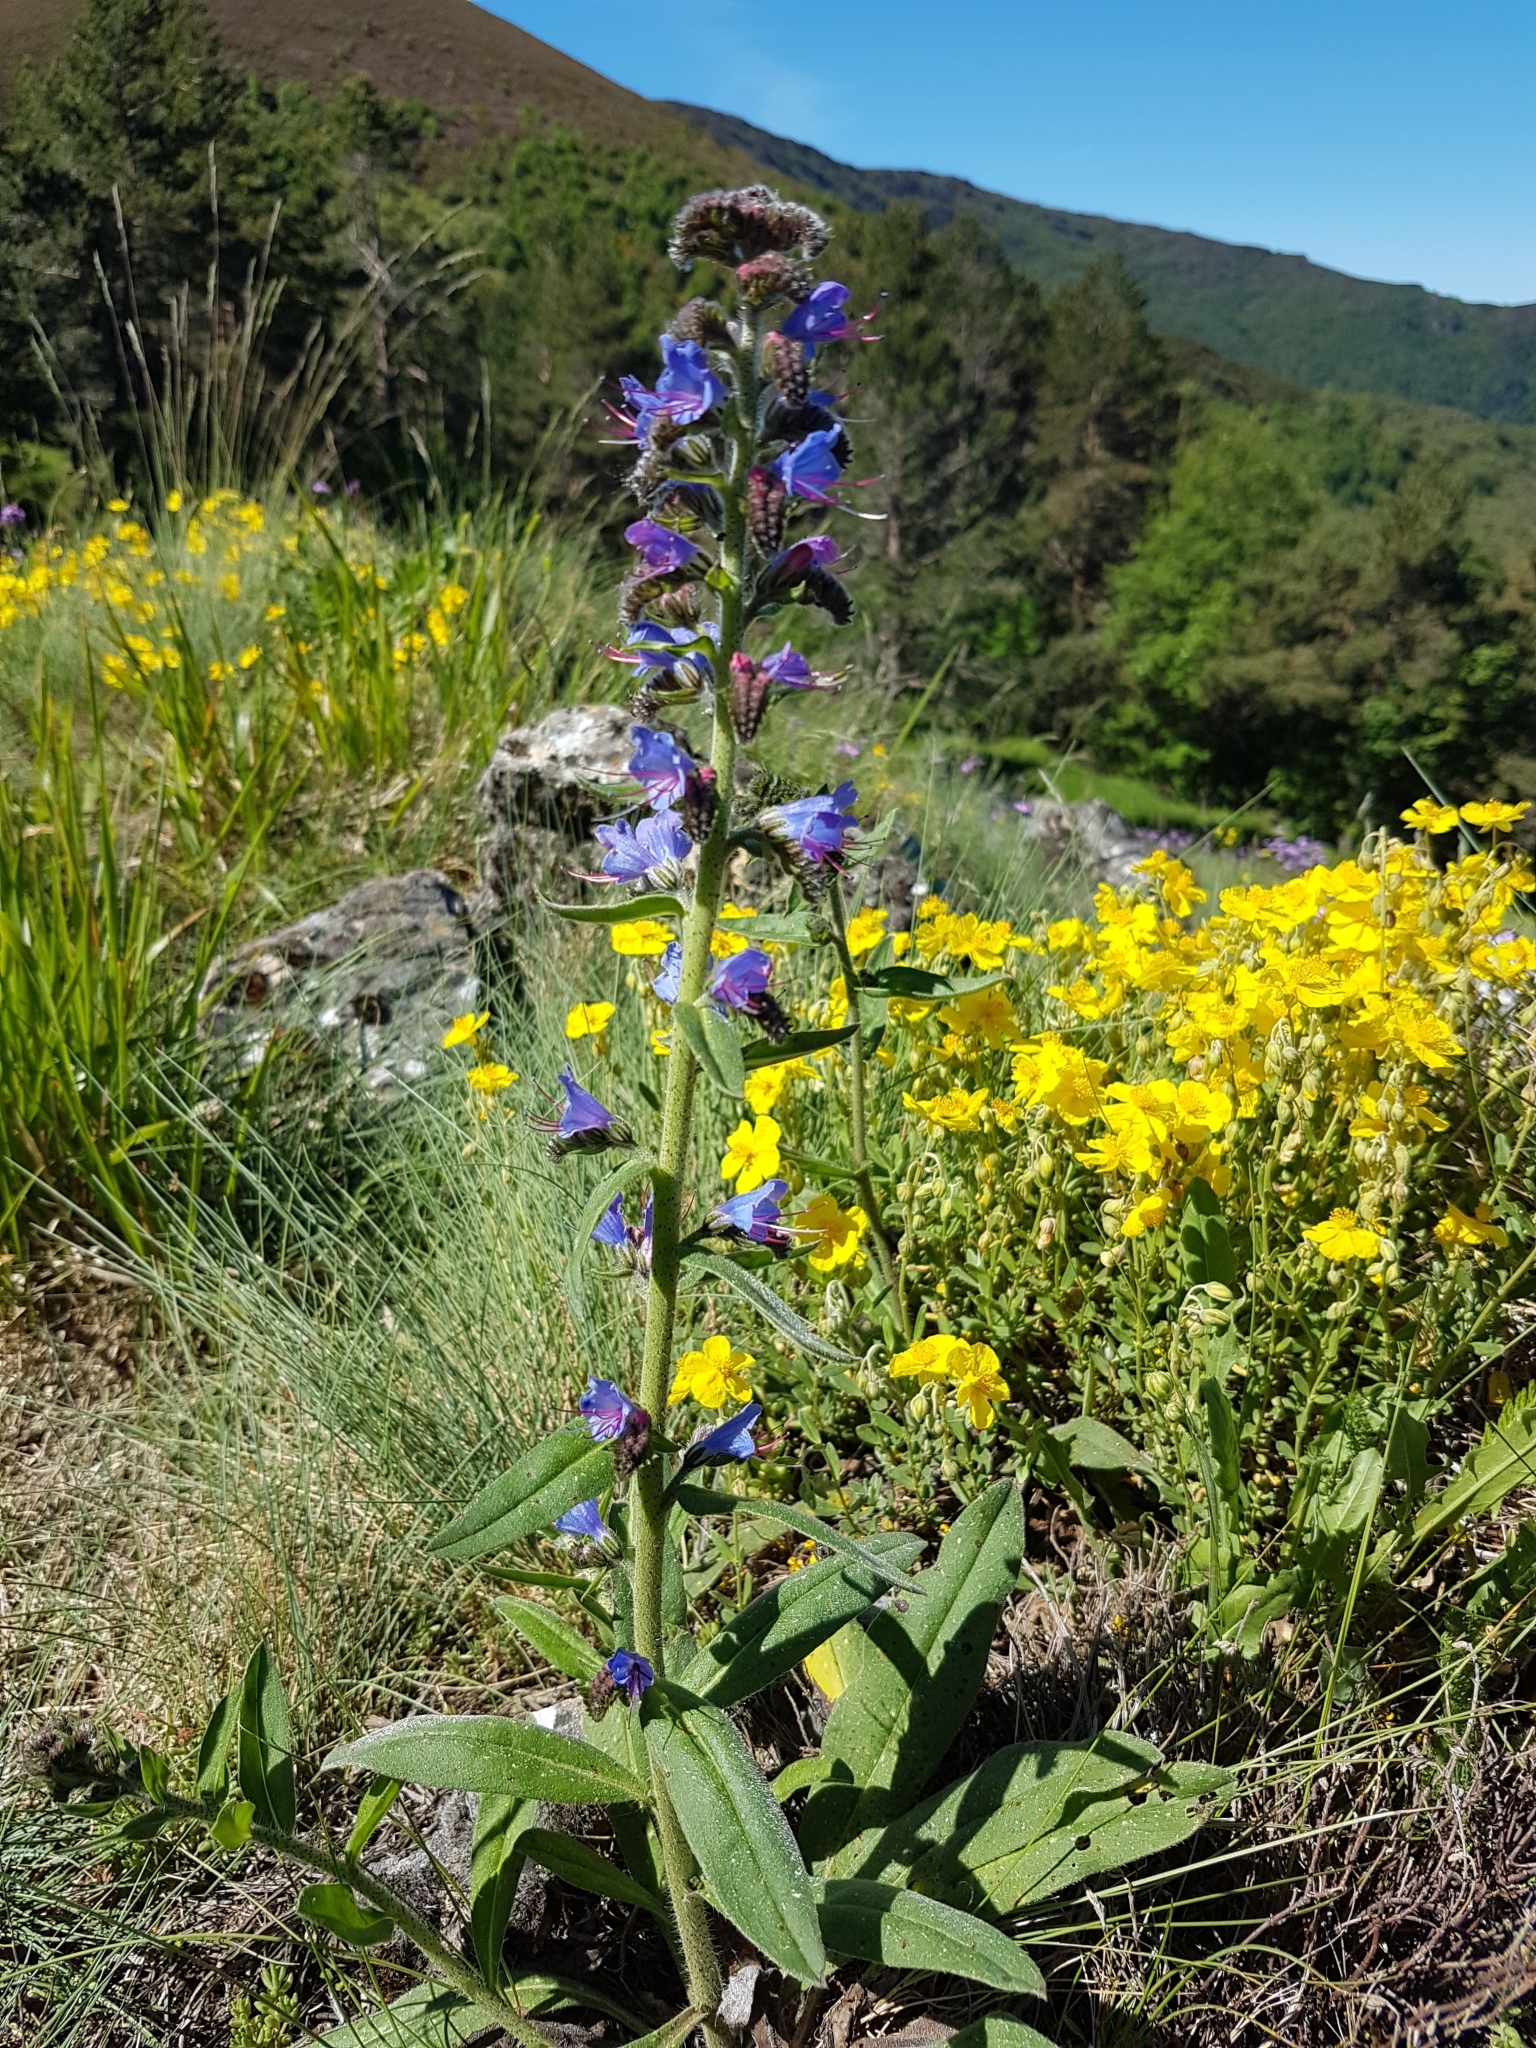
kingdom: Plantae
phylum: Tracheophyta
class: Magnoliopsida
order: Boraginales
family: Boraginaceae
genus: Echium
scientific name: Echium vulgare
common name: Common viper's bugloss
